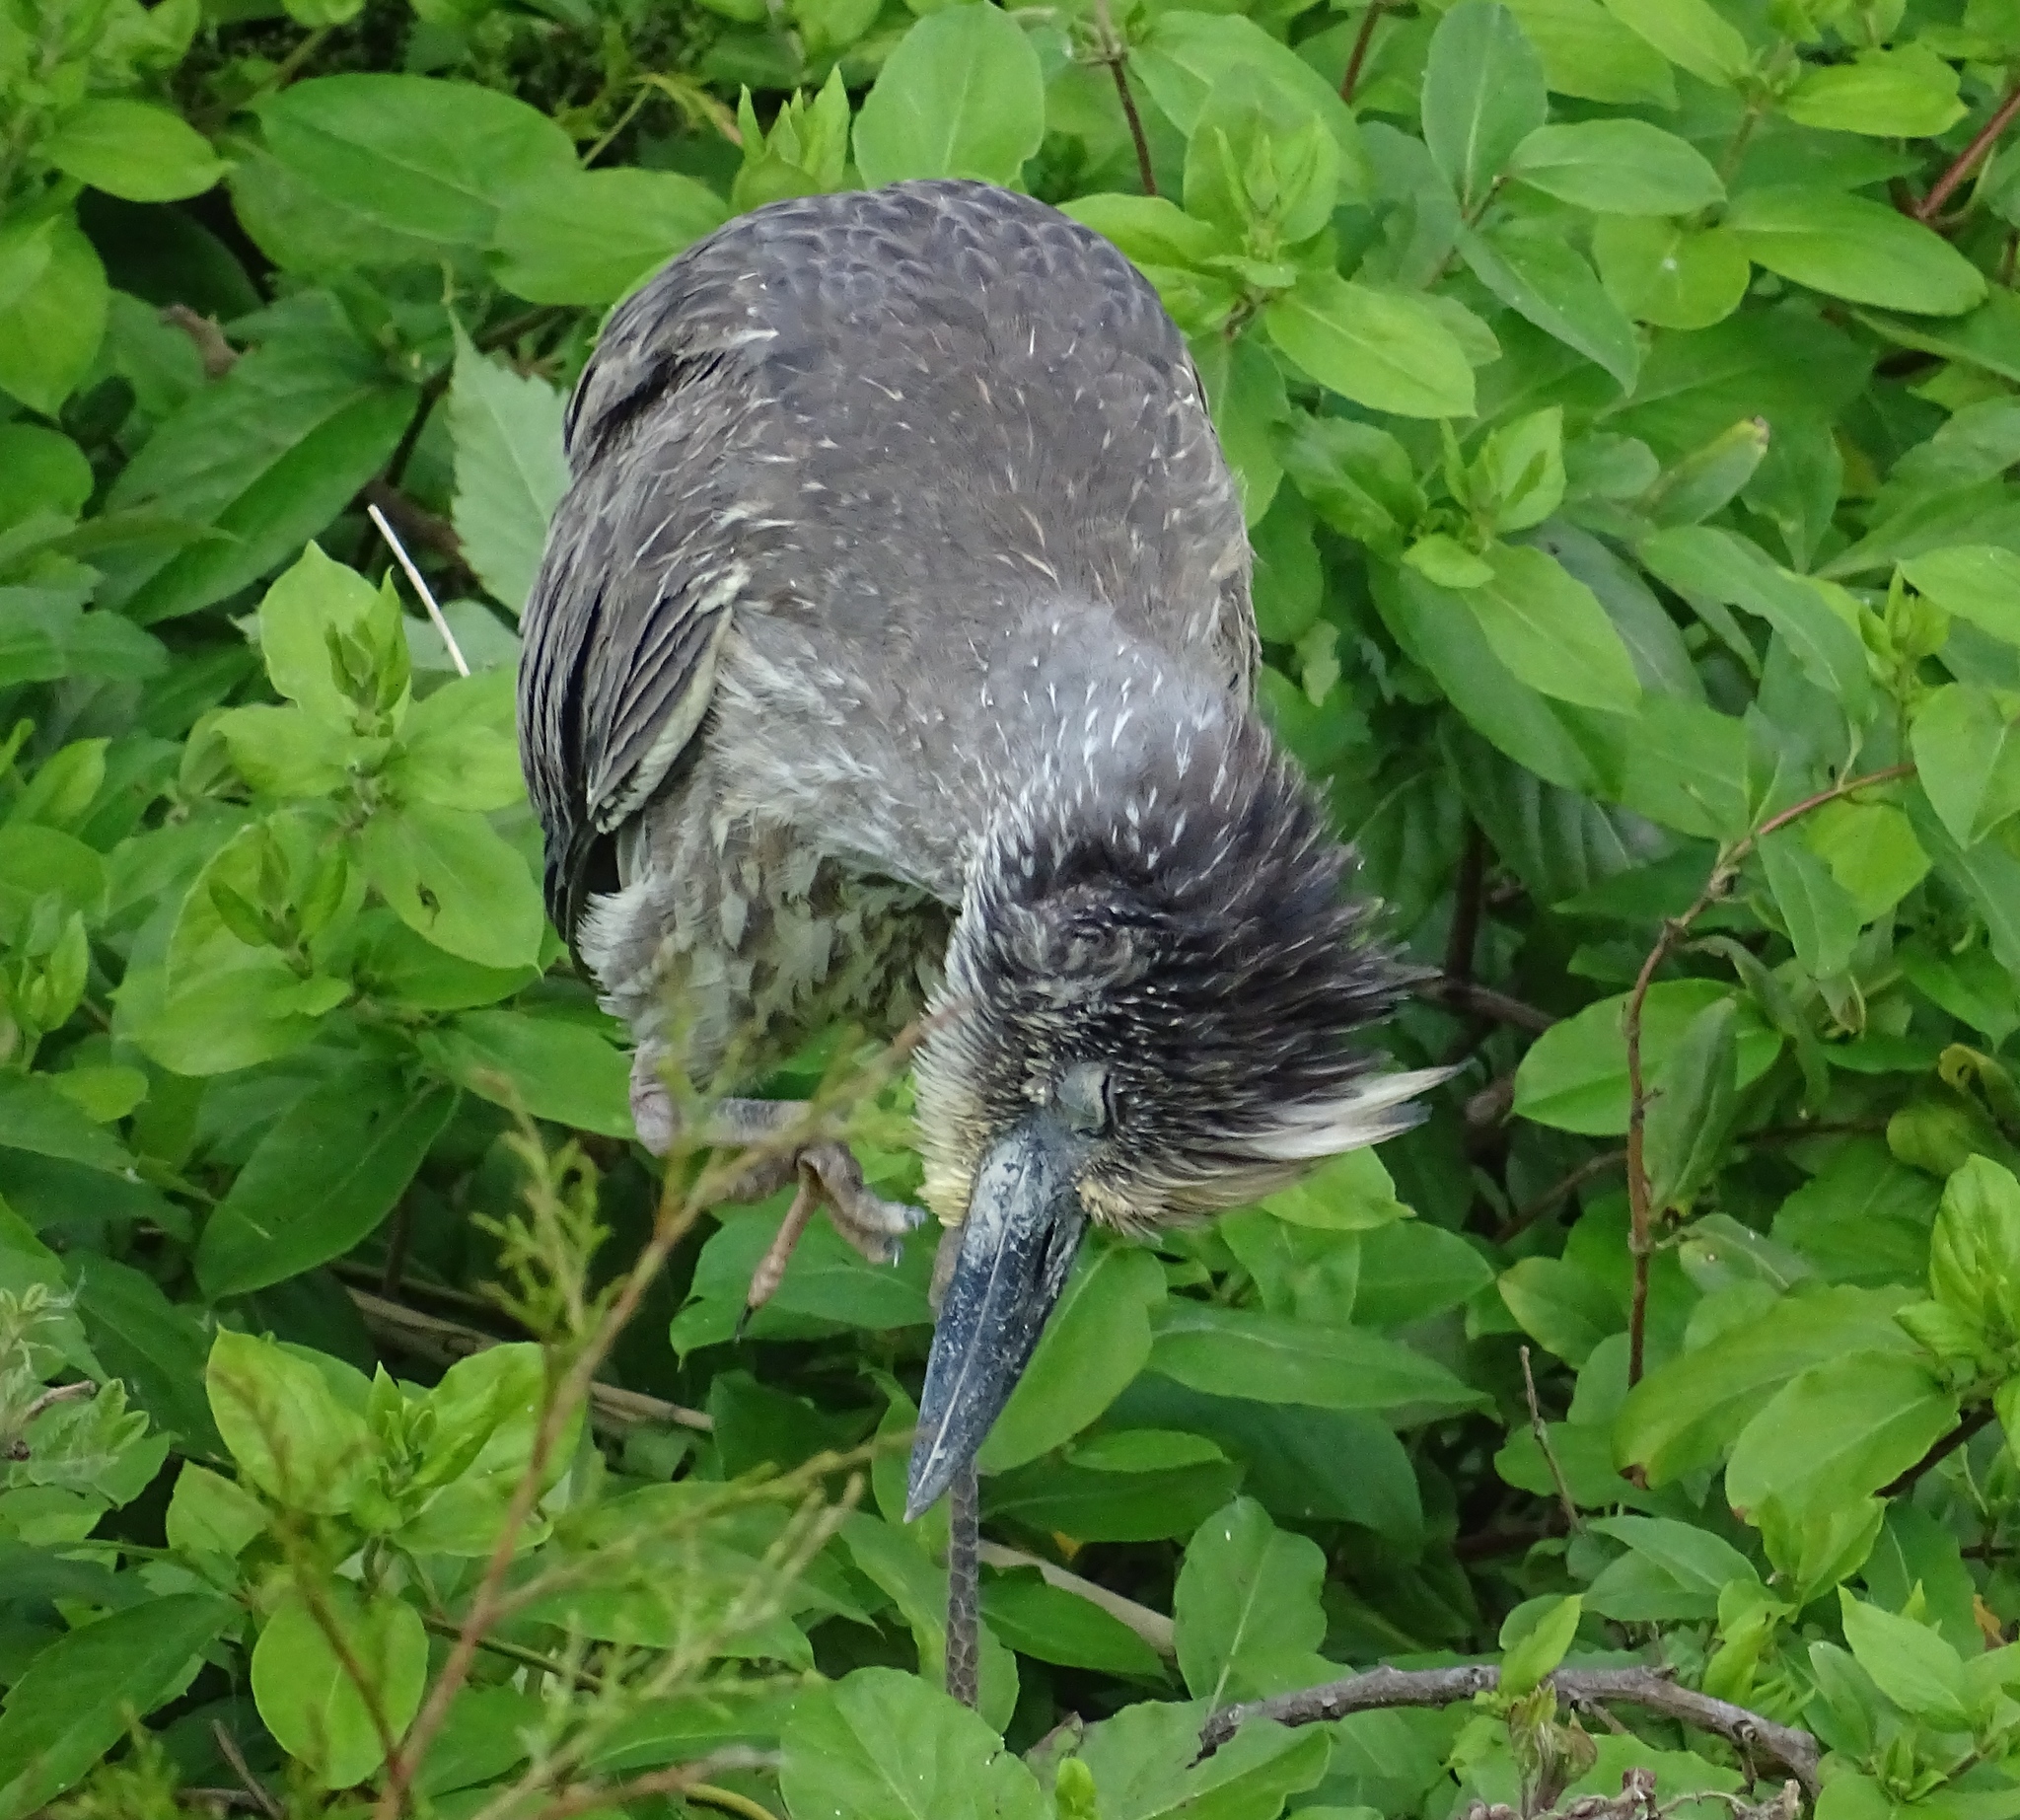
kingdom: Animalia
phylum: Chordata
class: Aves
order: Pelecaniformes
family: Ardeidae
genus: Nyctanassa
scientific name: Nyctanassa violacea
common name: Yellow-crowned night heron
